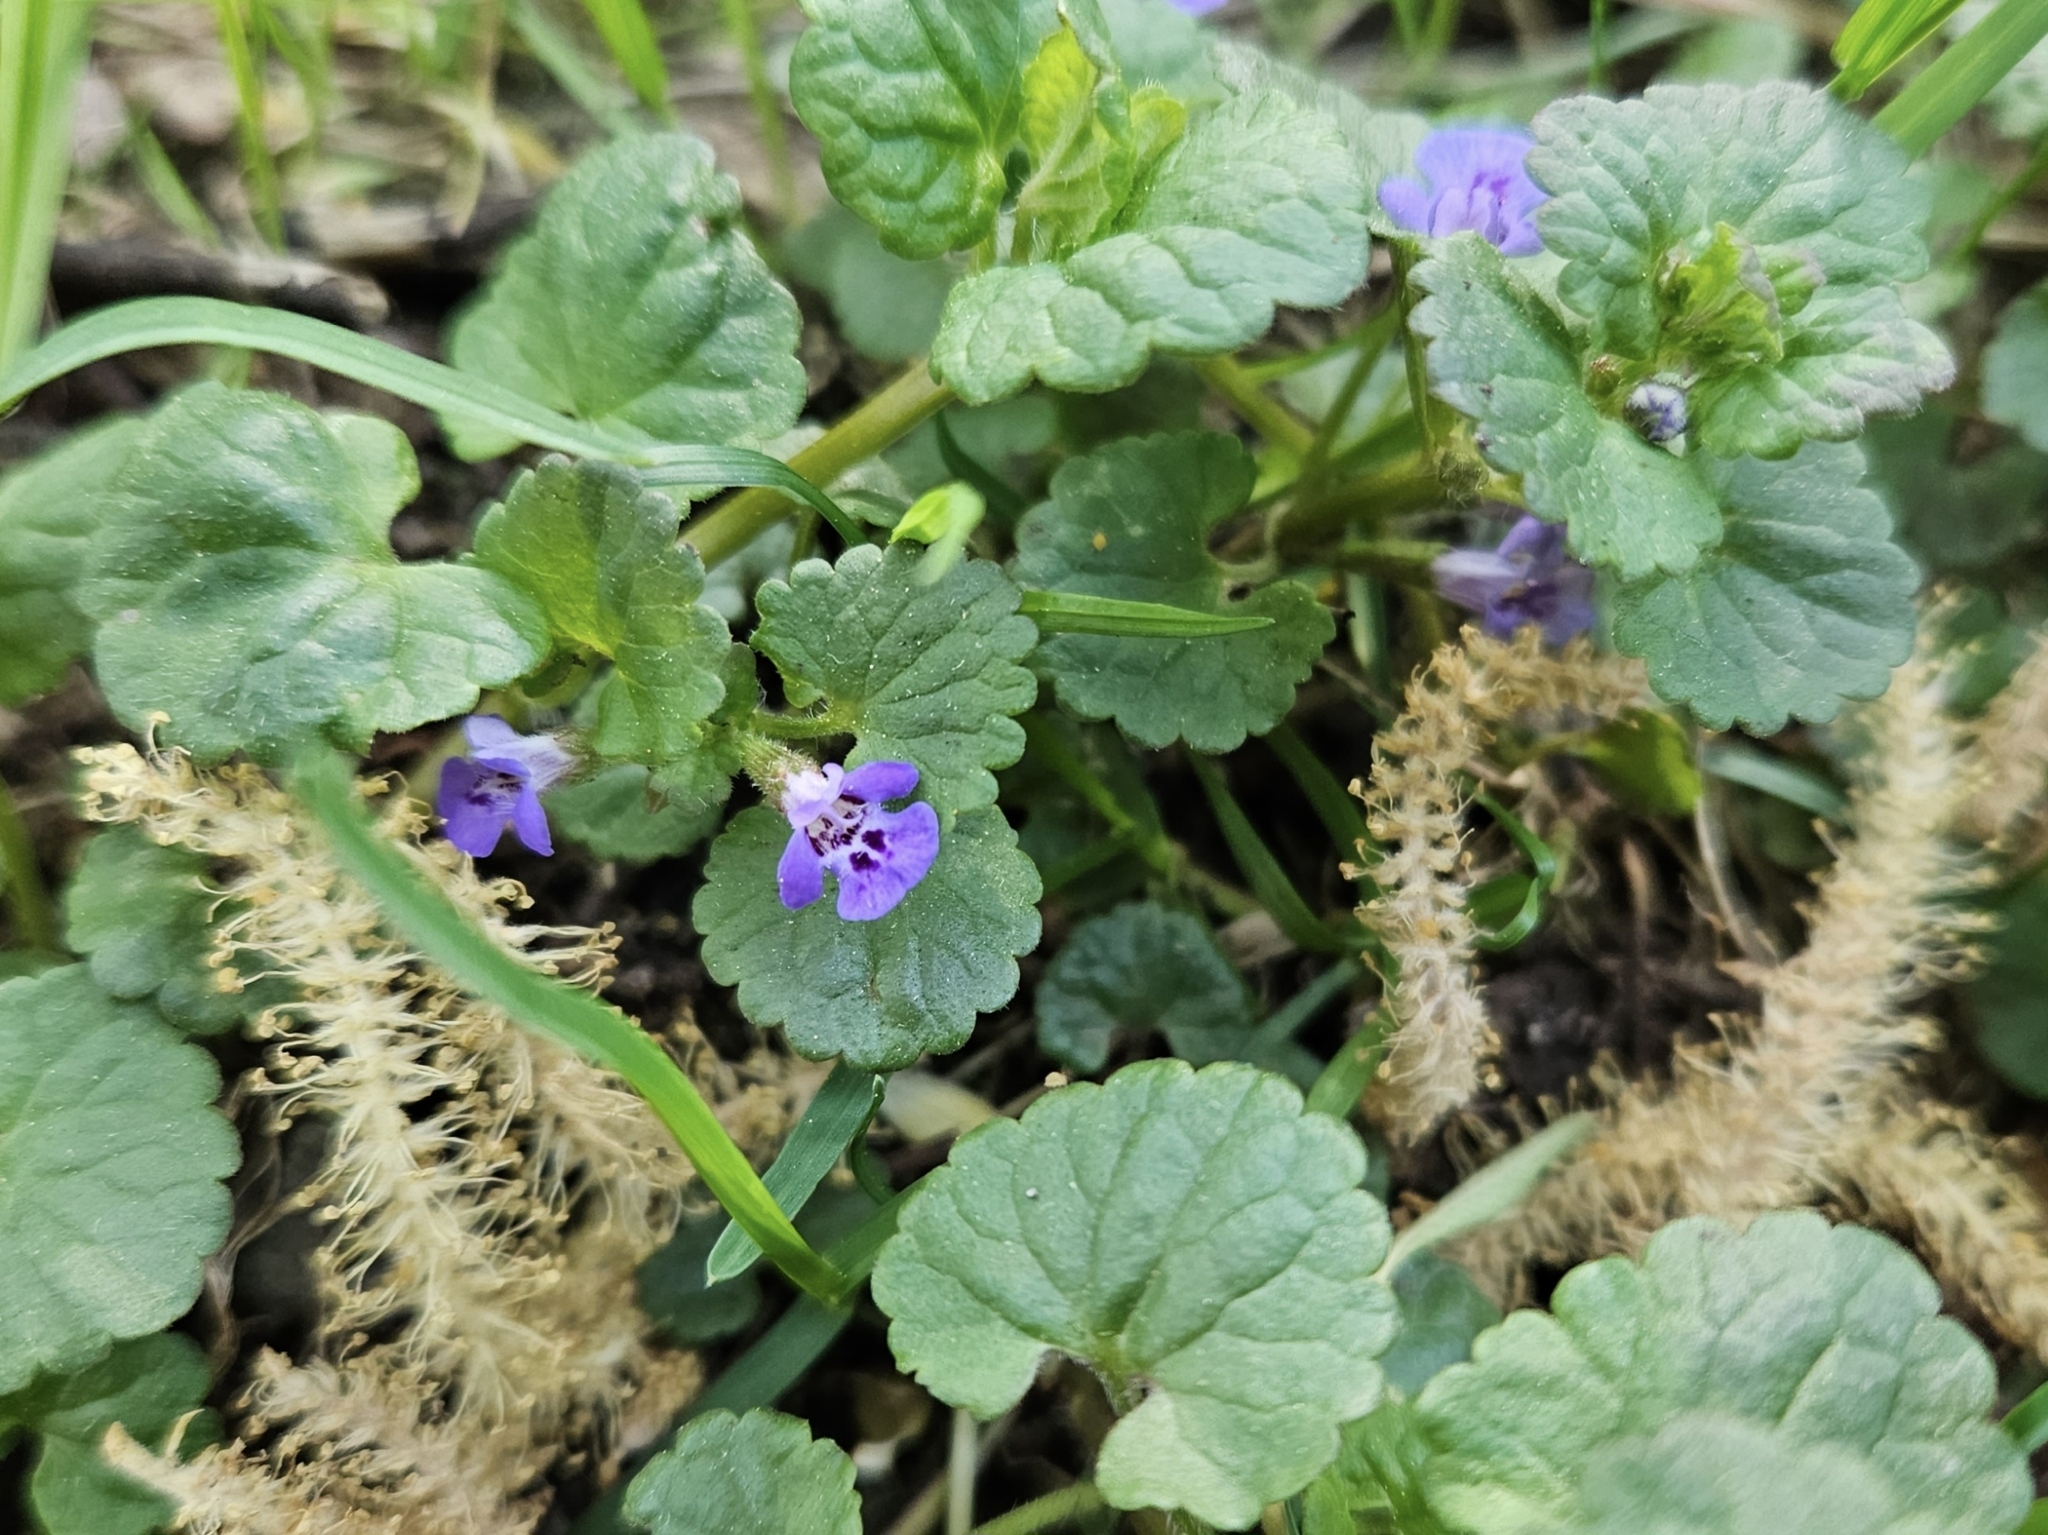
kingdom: Plantae
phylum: Tracheophyta
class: Magnoliopsida
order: Lamiales
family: Lamiaceae
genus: Glechoma
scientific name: Glechoma hederacea
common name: Ground ivy
